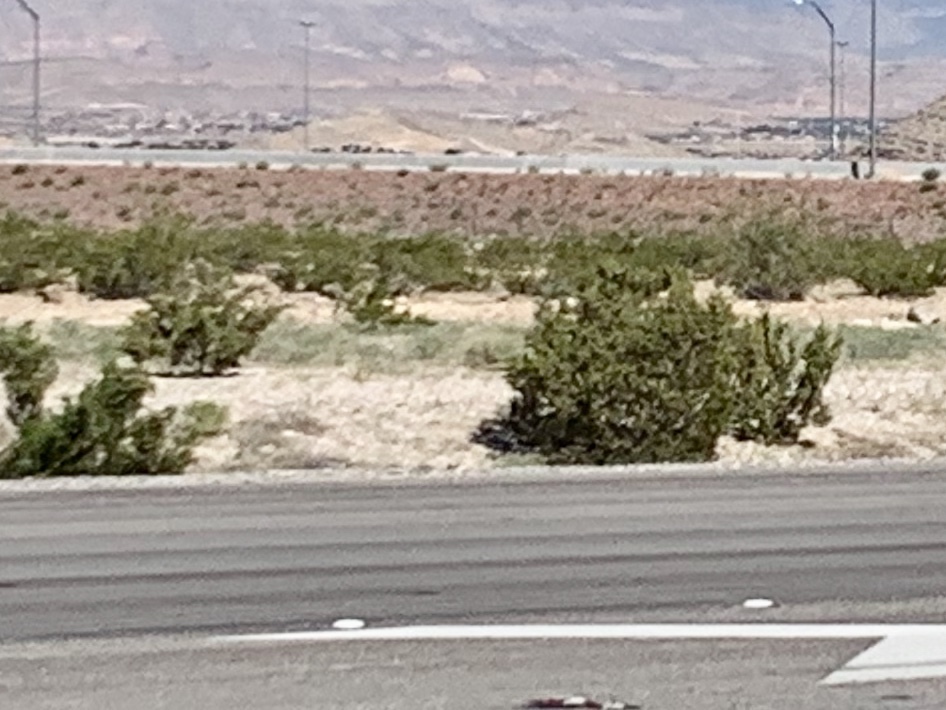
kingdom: Plantae
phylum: Tracheophyta
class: Magnoliopsida
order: Zygophyllales
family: Zygophyllaceae
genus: Larrea
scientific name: Larrea tridentata
